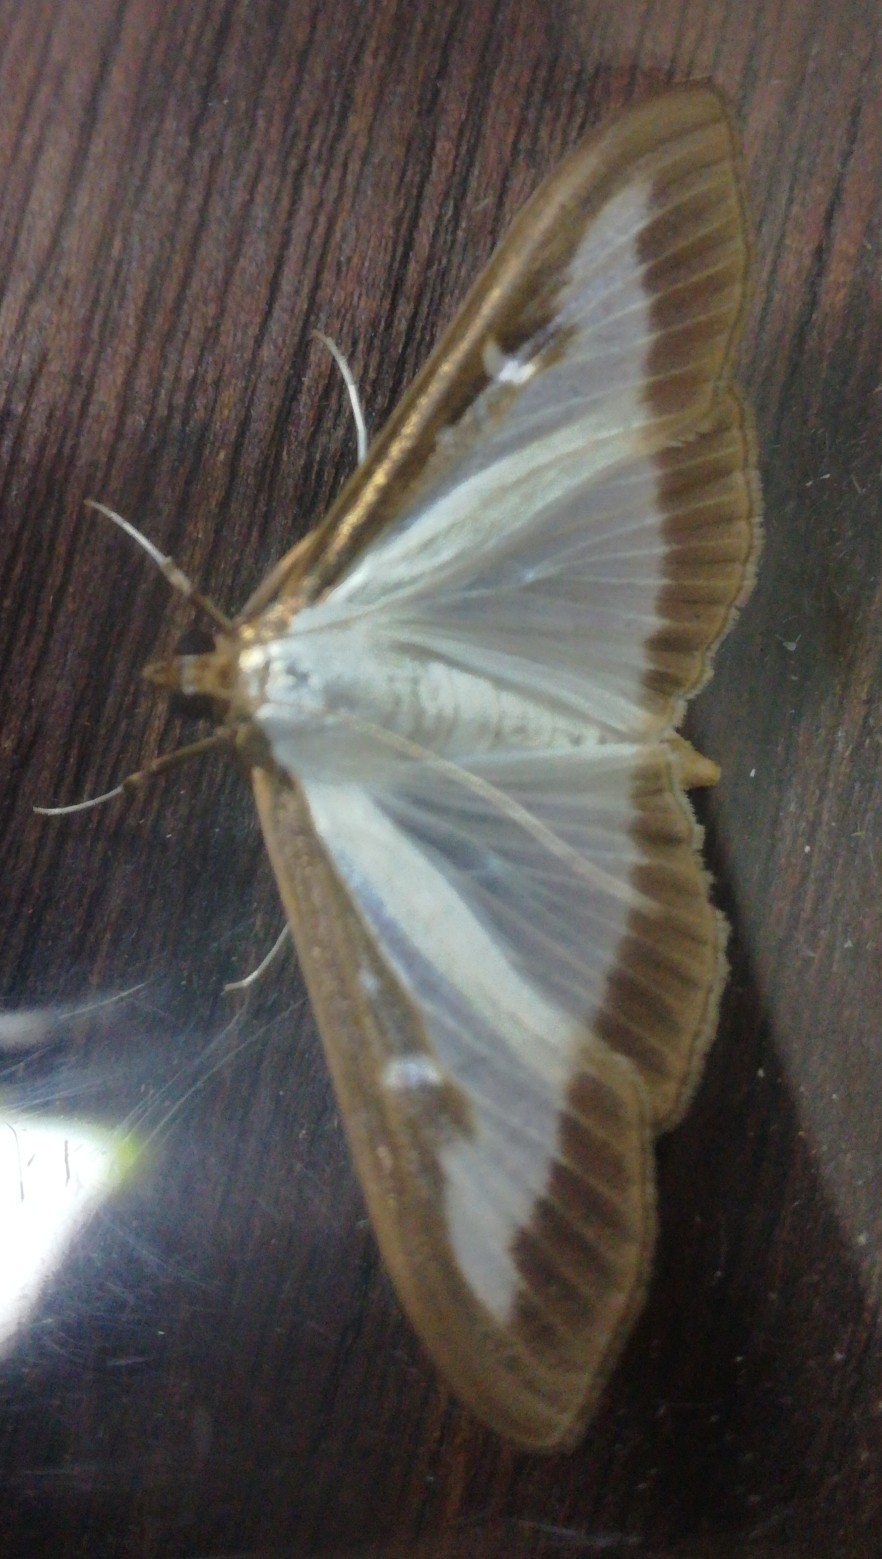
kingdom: Animalia
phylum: Arthropoda
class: Insecta
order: Lepidoptera
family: Crambidae
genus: Cydalima
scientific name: Cydalima perspectalis
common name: Box tree moth
